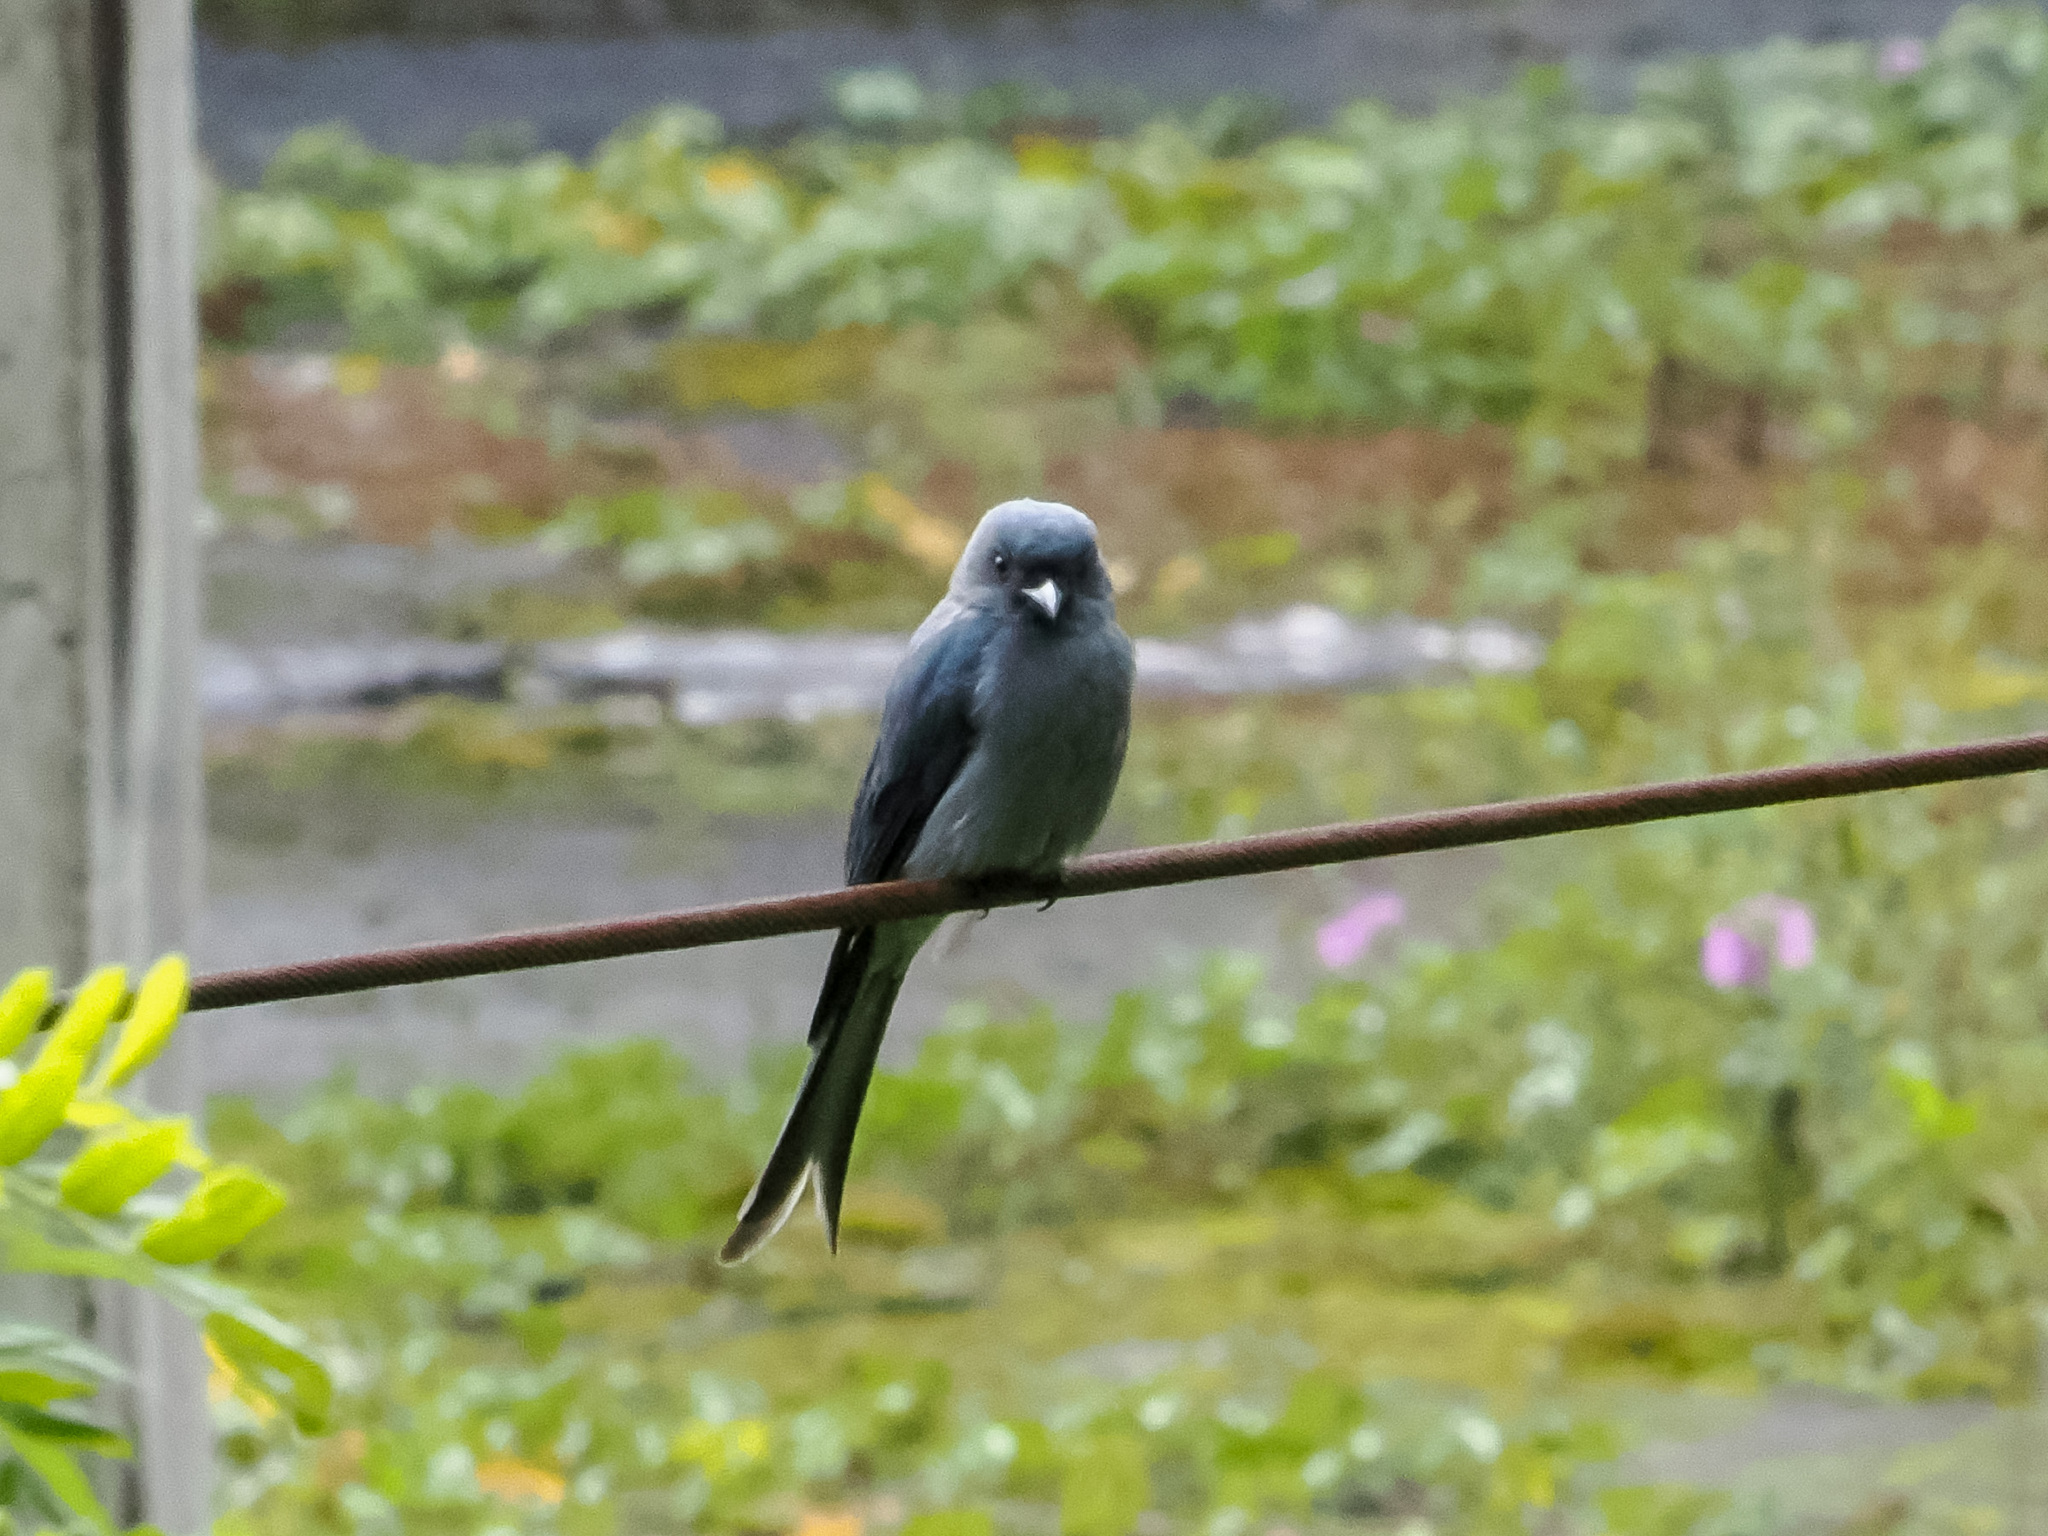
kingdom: Animalia
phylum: Chordata
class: Aves
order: Passeriformes
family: Dicruridae
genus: Dicrurus
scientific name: Dicrurus leucophaeus
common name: Ashy drongo
